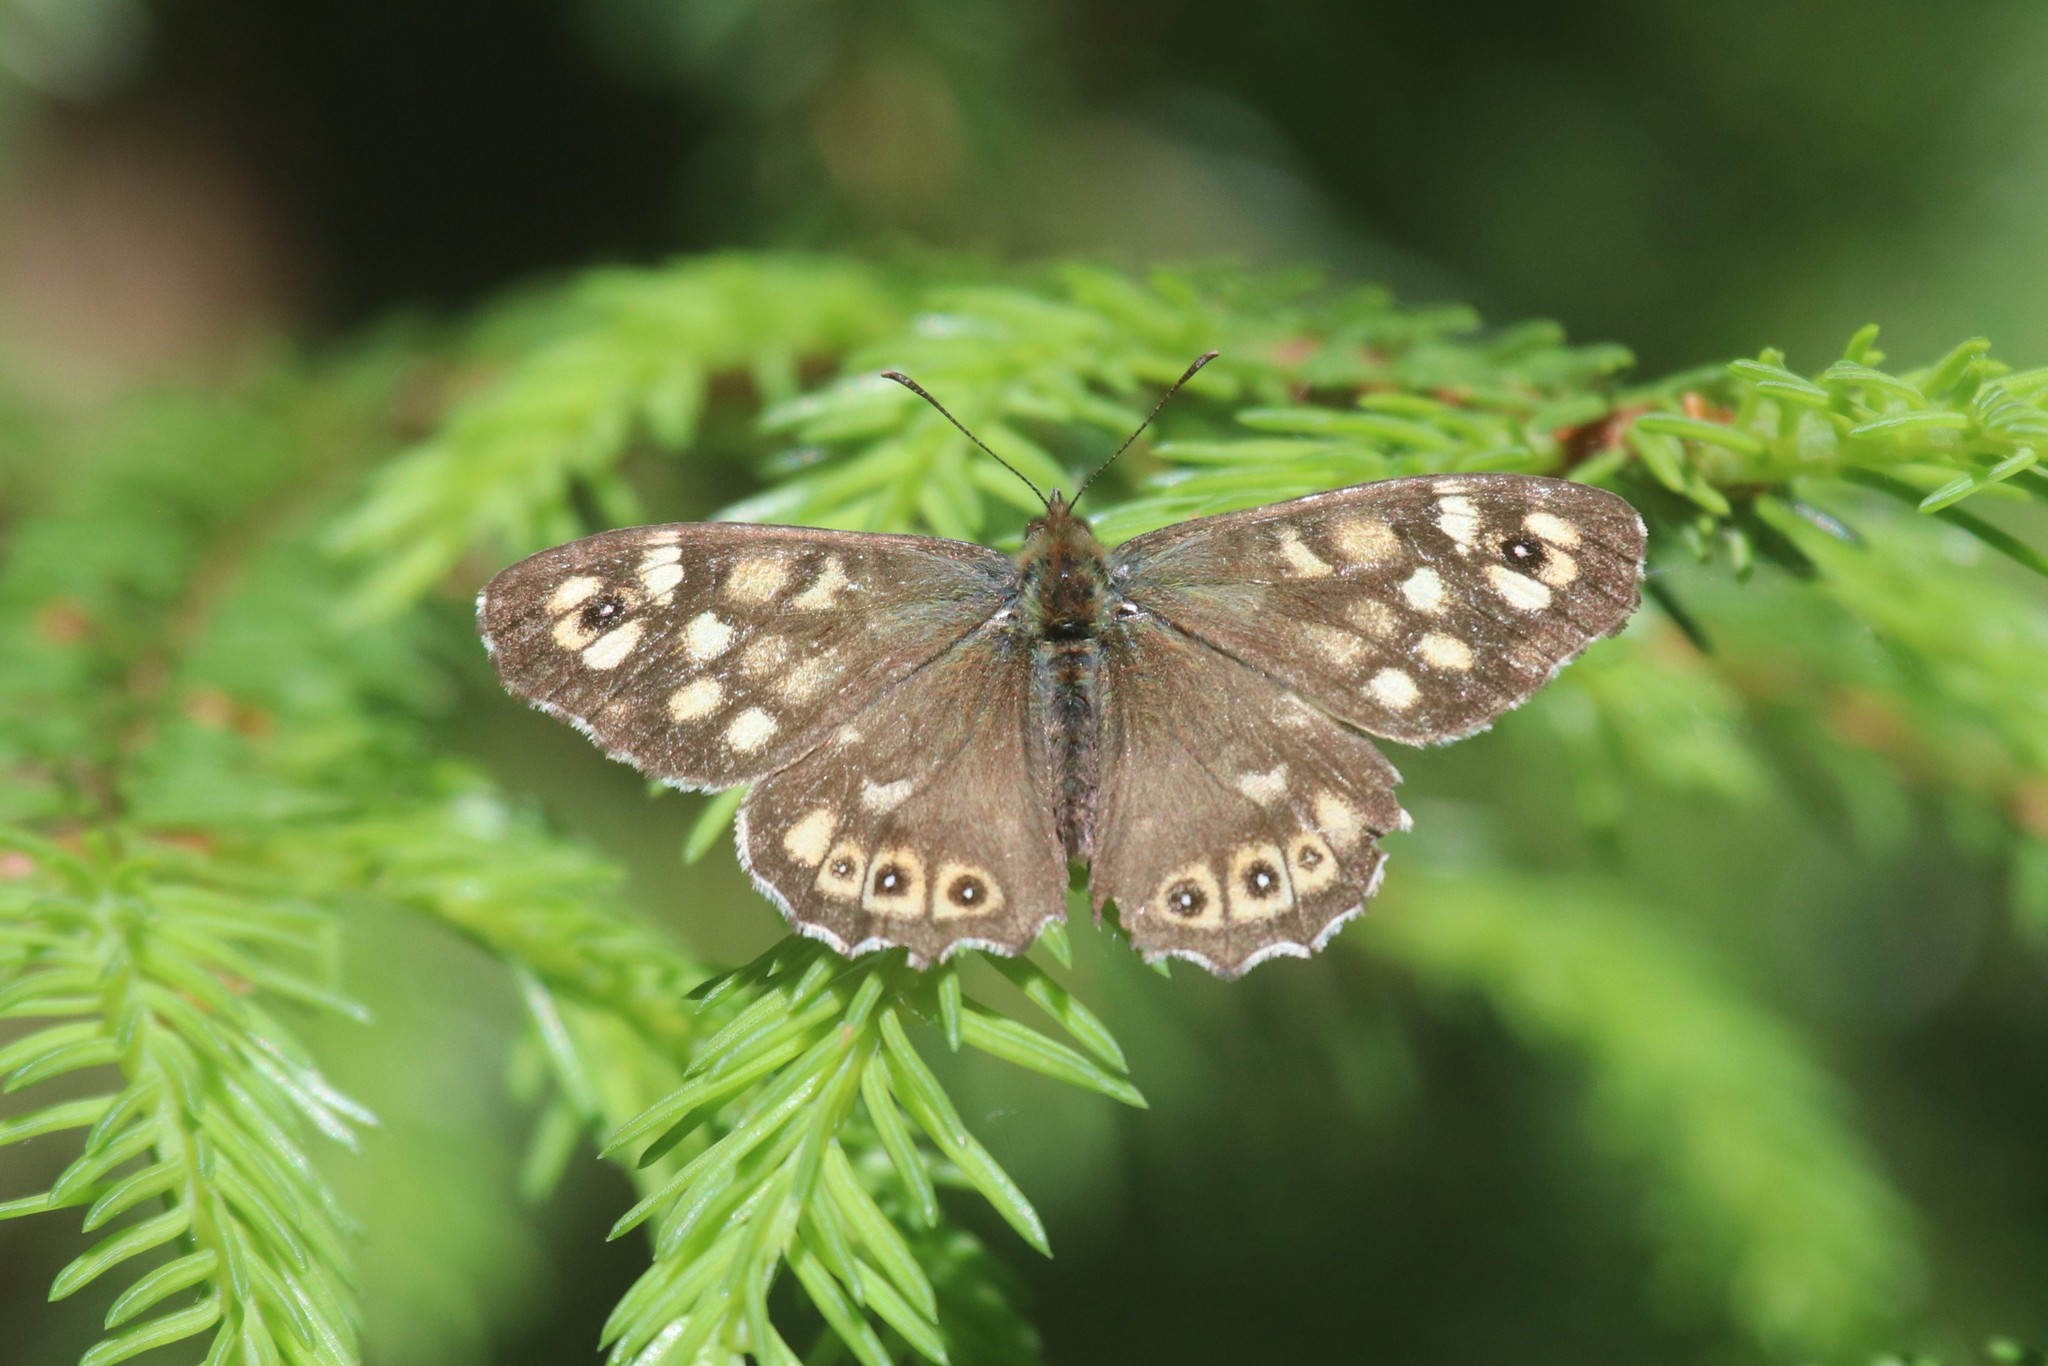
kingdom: Animalia
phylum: Arthropoda
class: Insecta
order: Lepidoptera
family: Nymphalidae
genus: Pararge
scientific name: Pararge aegeria
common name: Speckled wood
